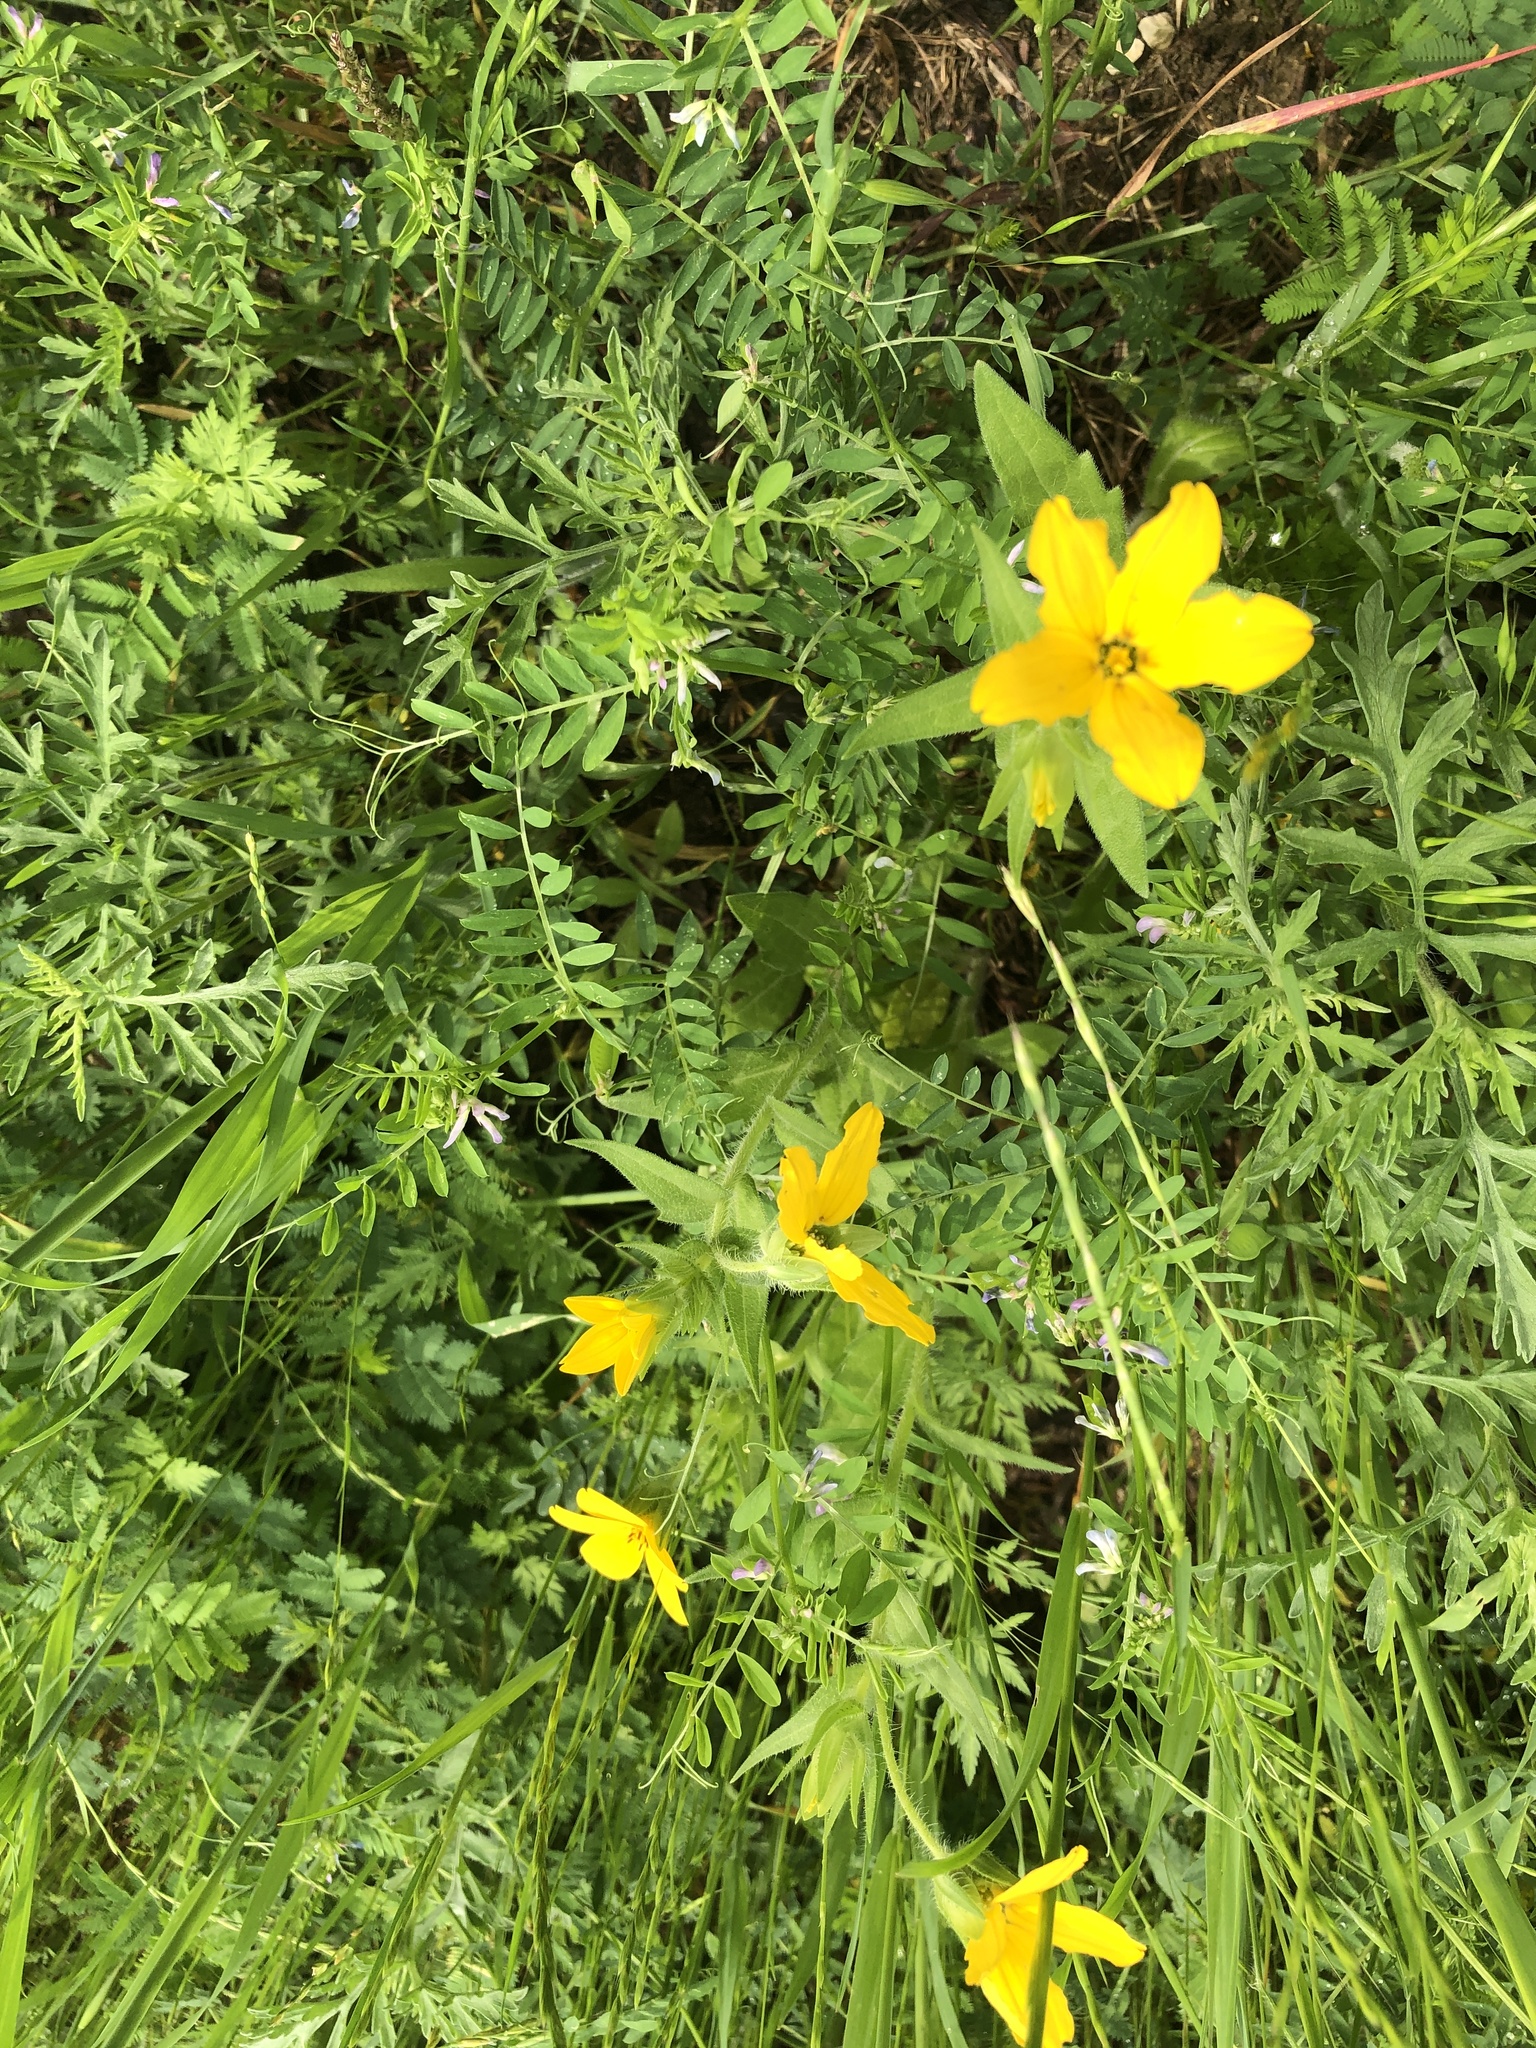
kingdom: Plantae
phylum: Tracheophyta
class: Magnoliopsida
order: Asterales
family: Asteraceae
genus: Lindheimera
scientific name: Lindheimera texana
